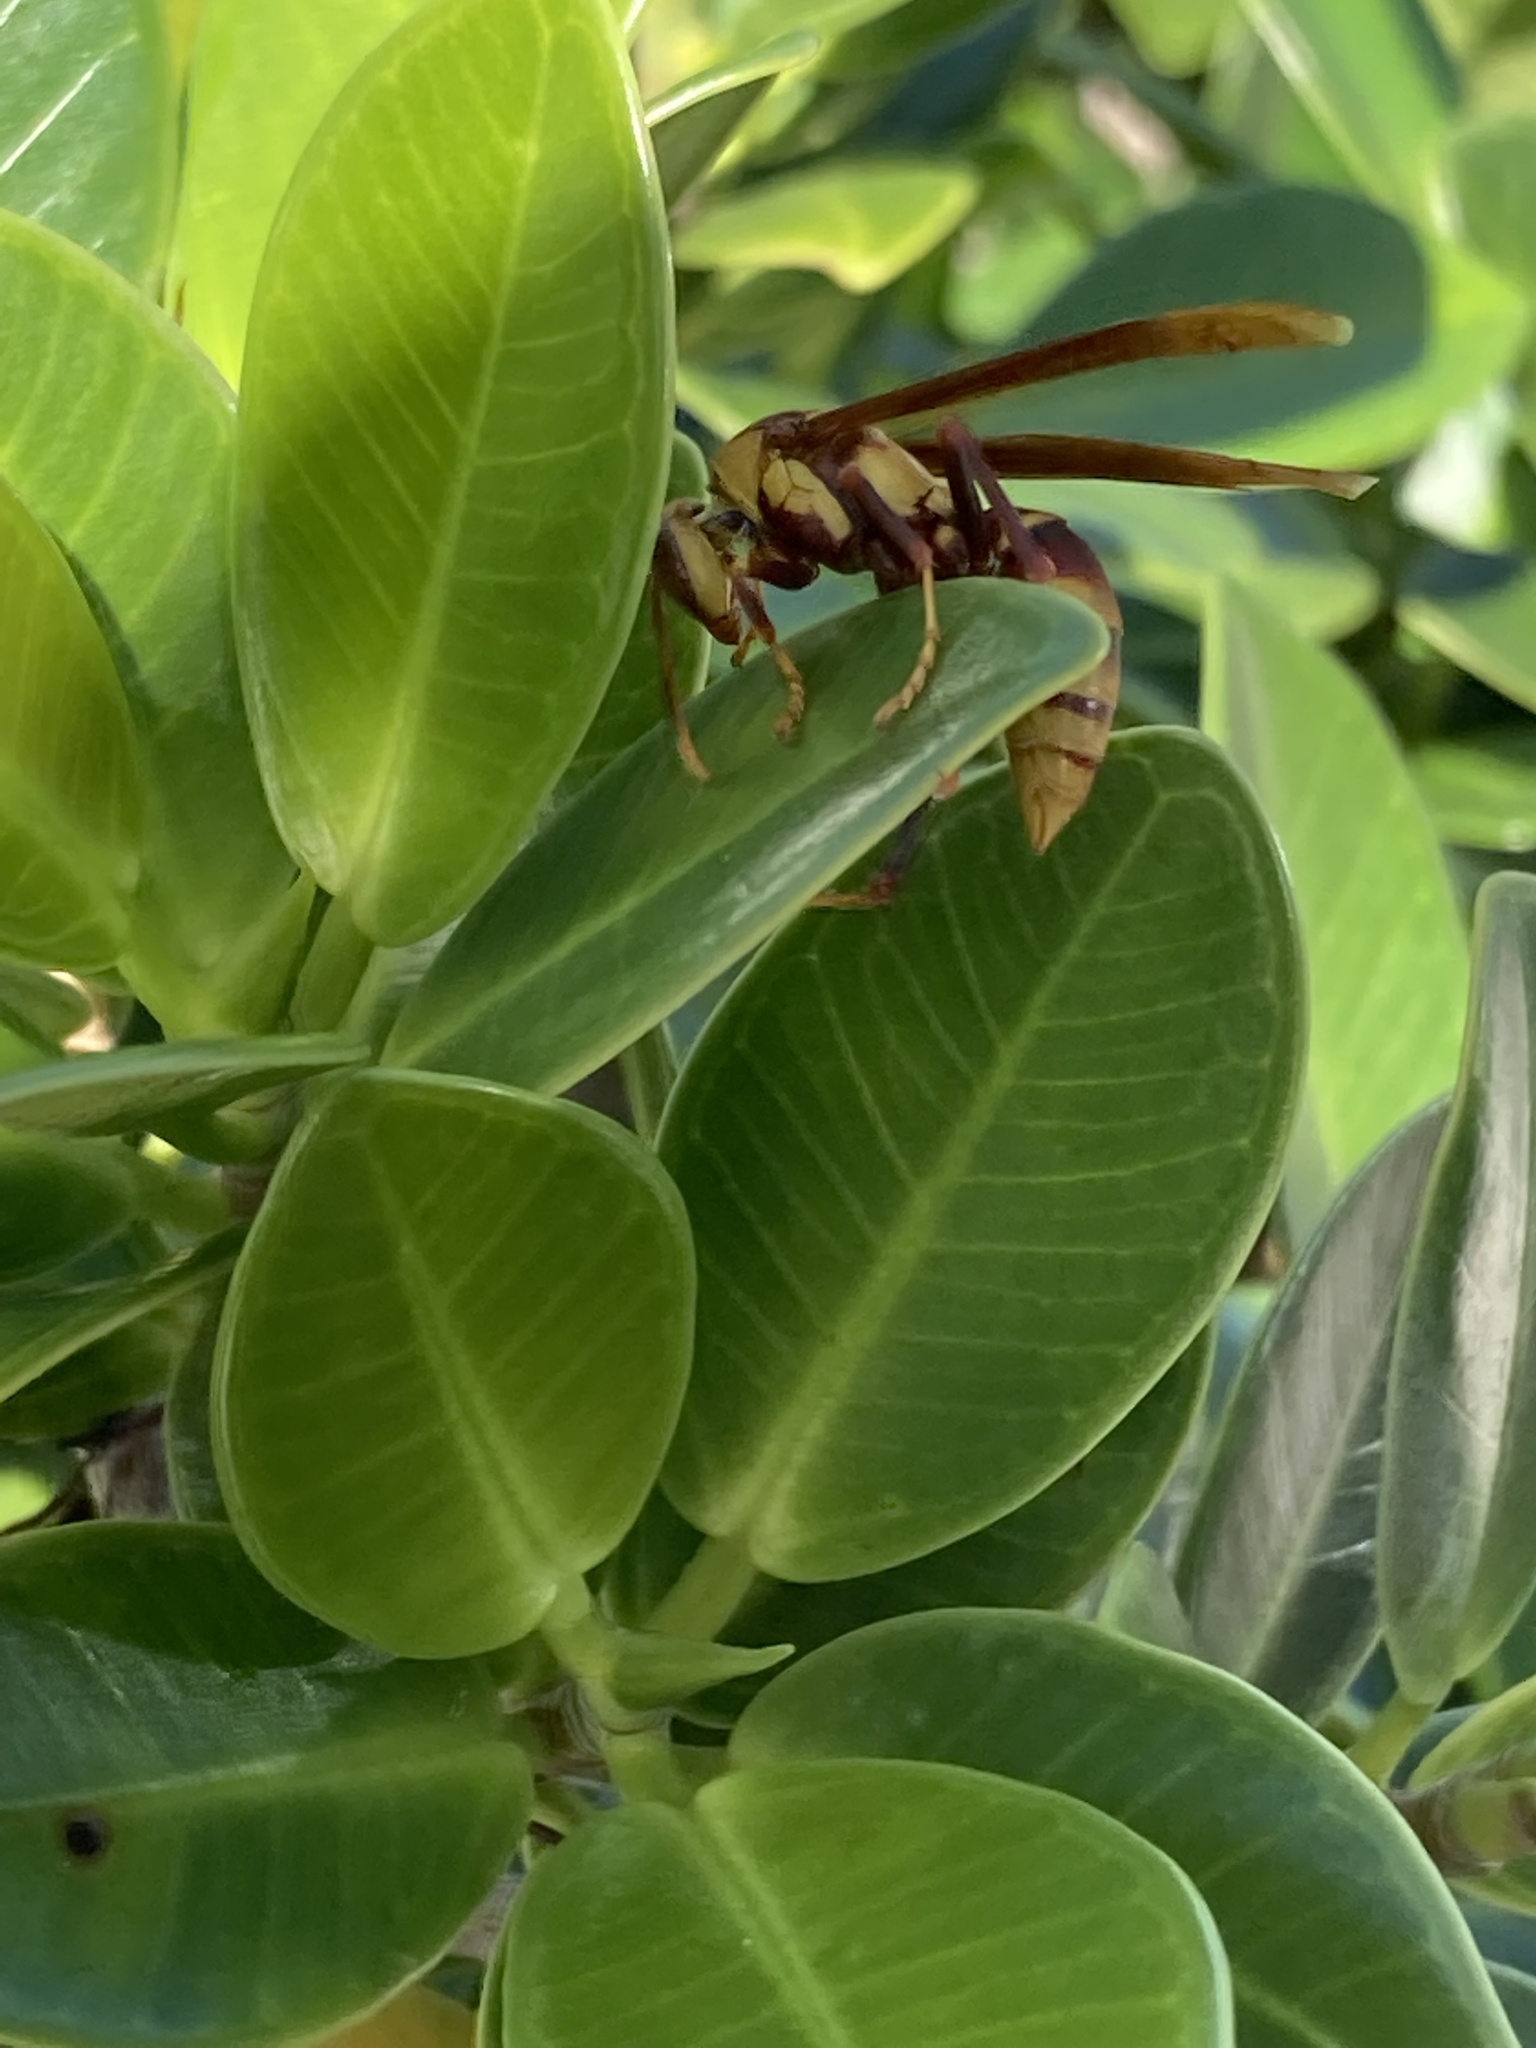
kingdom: Animalia
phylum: Arthropoda
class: Insecta
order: Hymenoptera
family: Eumenidae
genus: Polistes
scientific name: Polistes major
